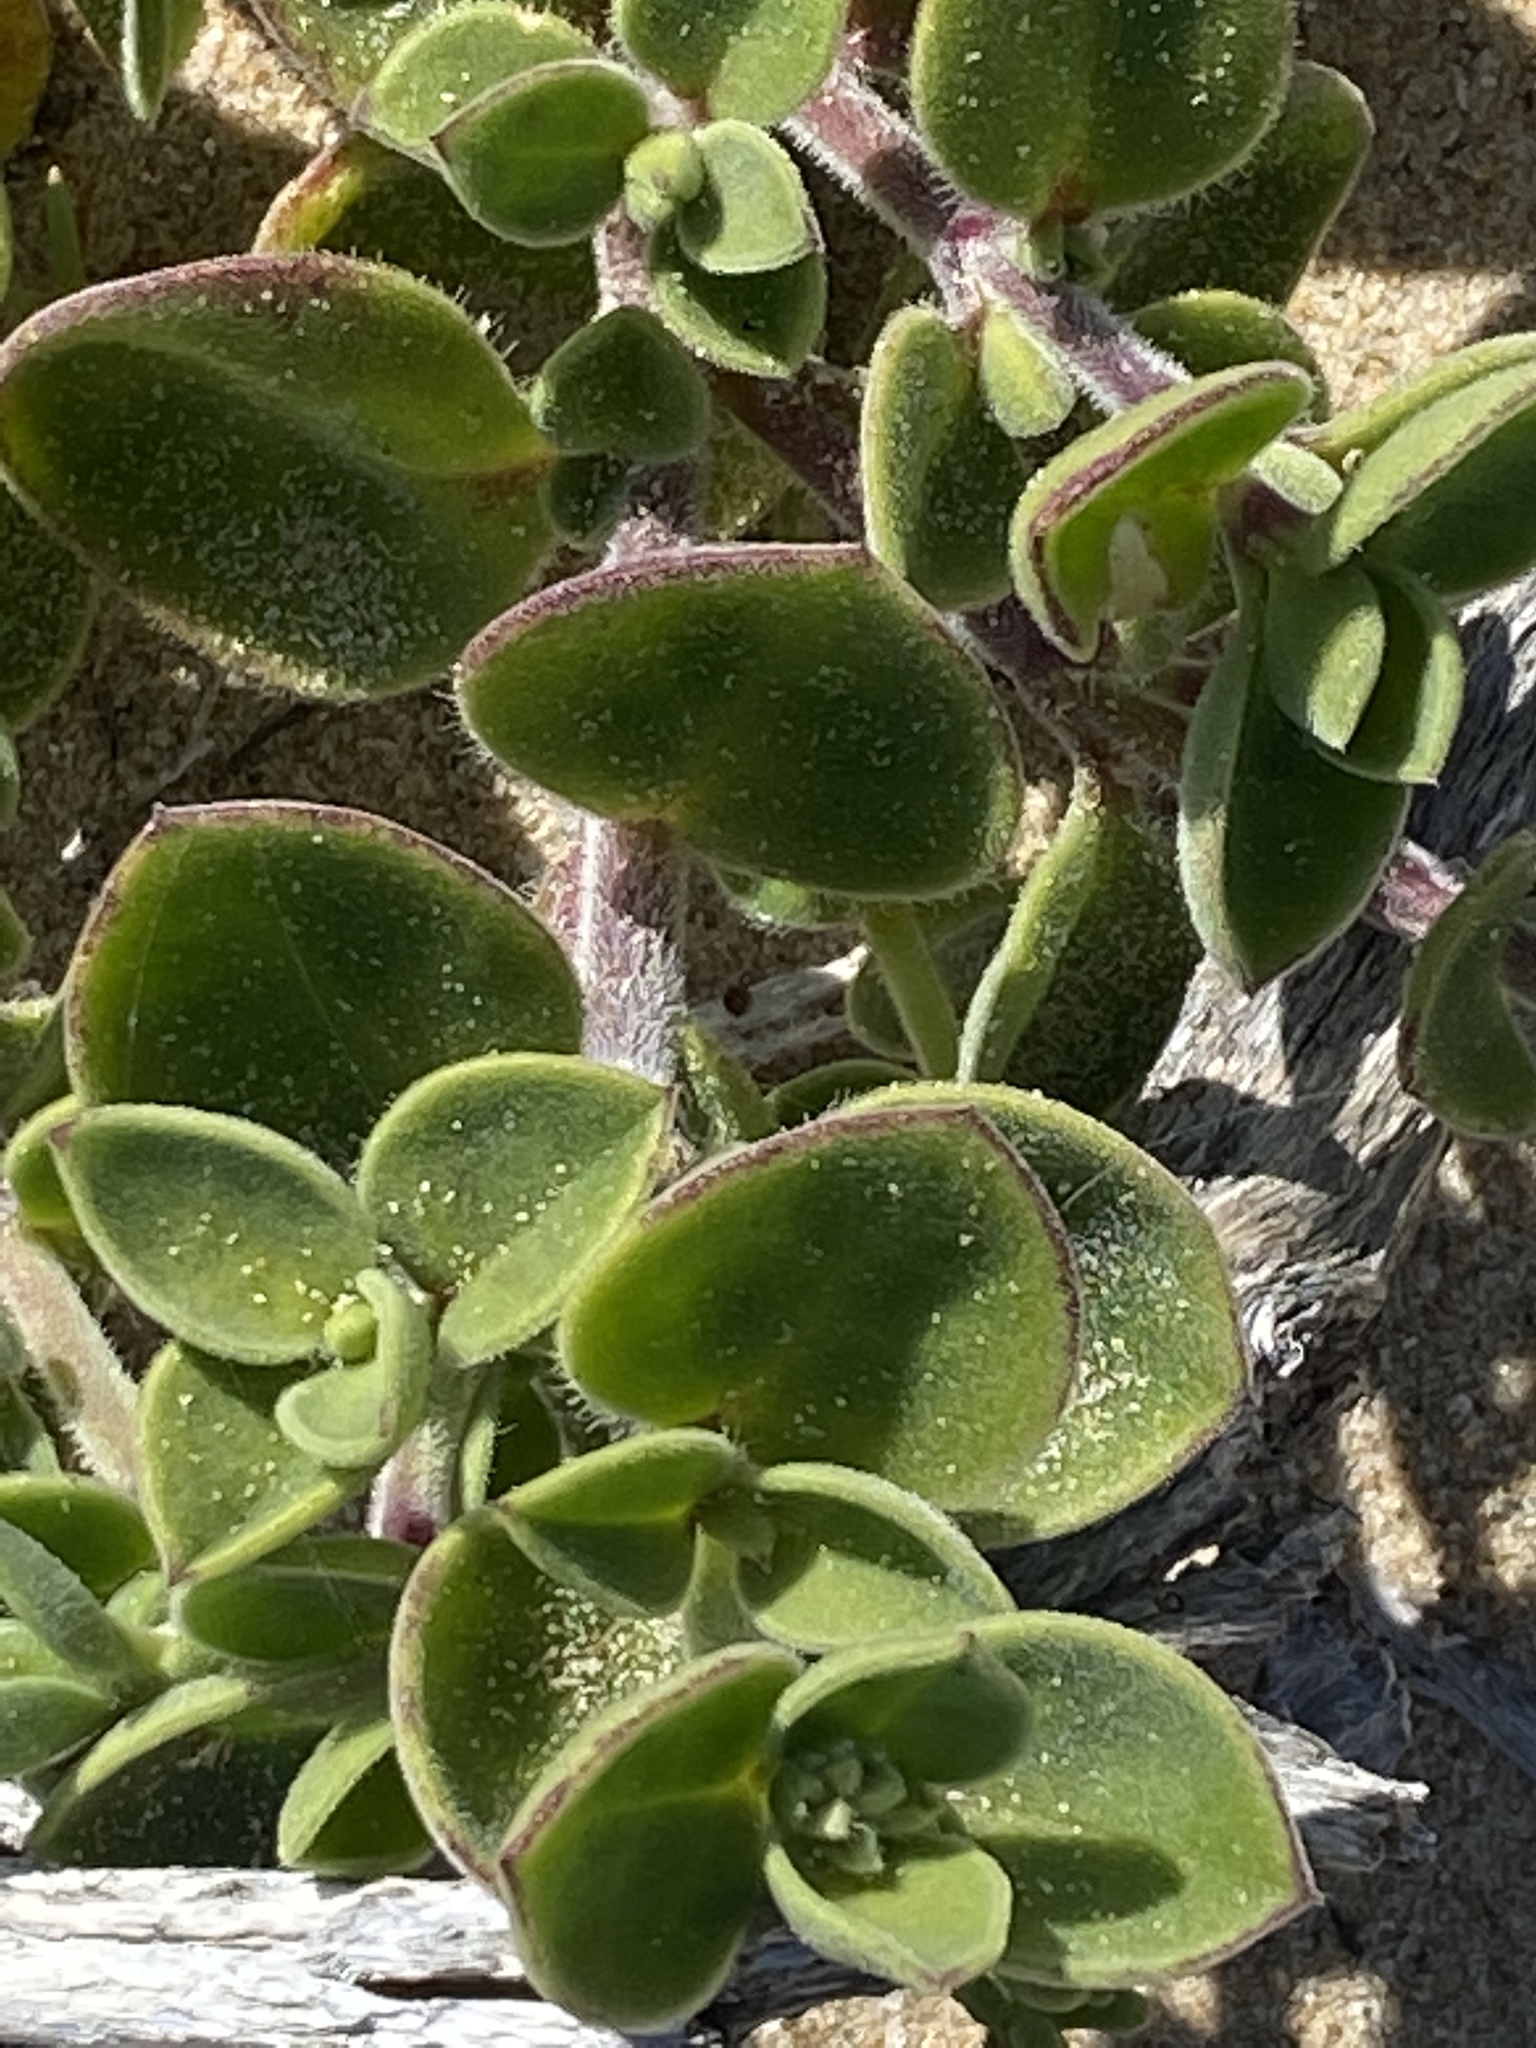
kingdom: Plantae
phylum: Tracheophyta
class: Magnoliopsida
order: Caryophyllales
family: Caryophyllaceae
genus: Silene
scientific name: Silene crassifolia
